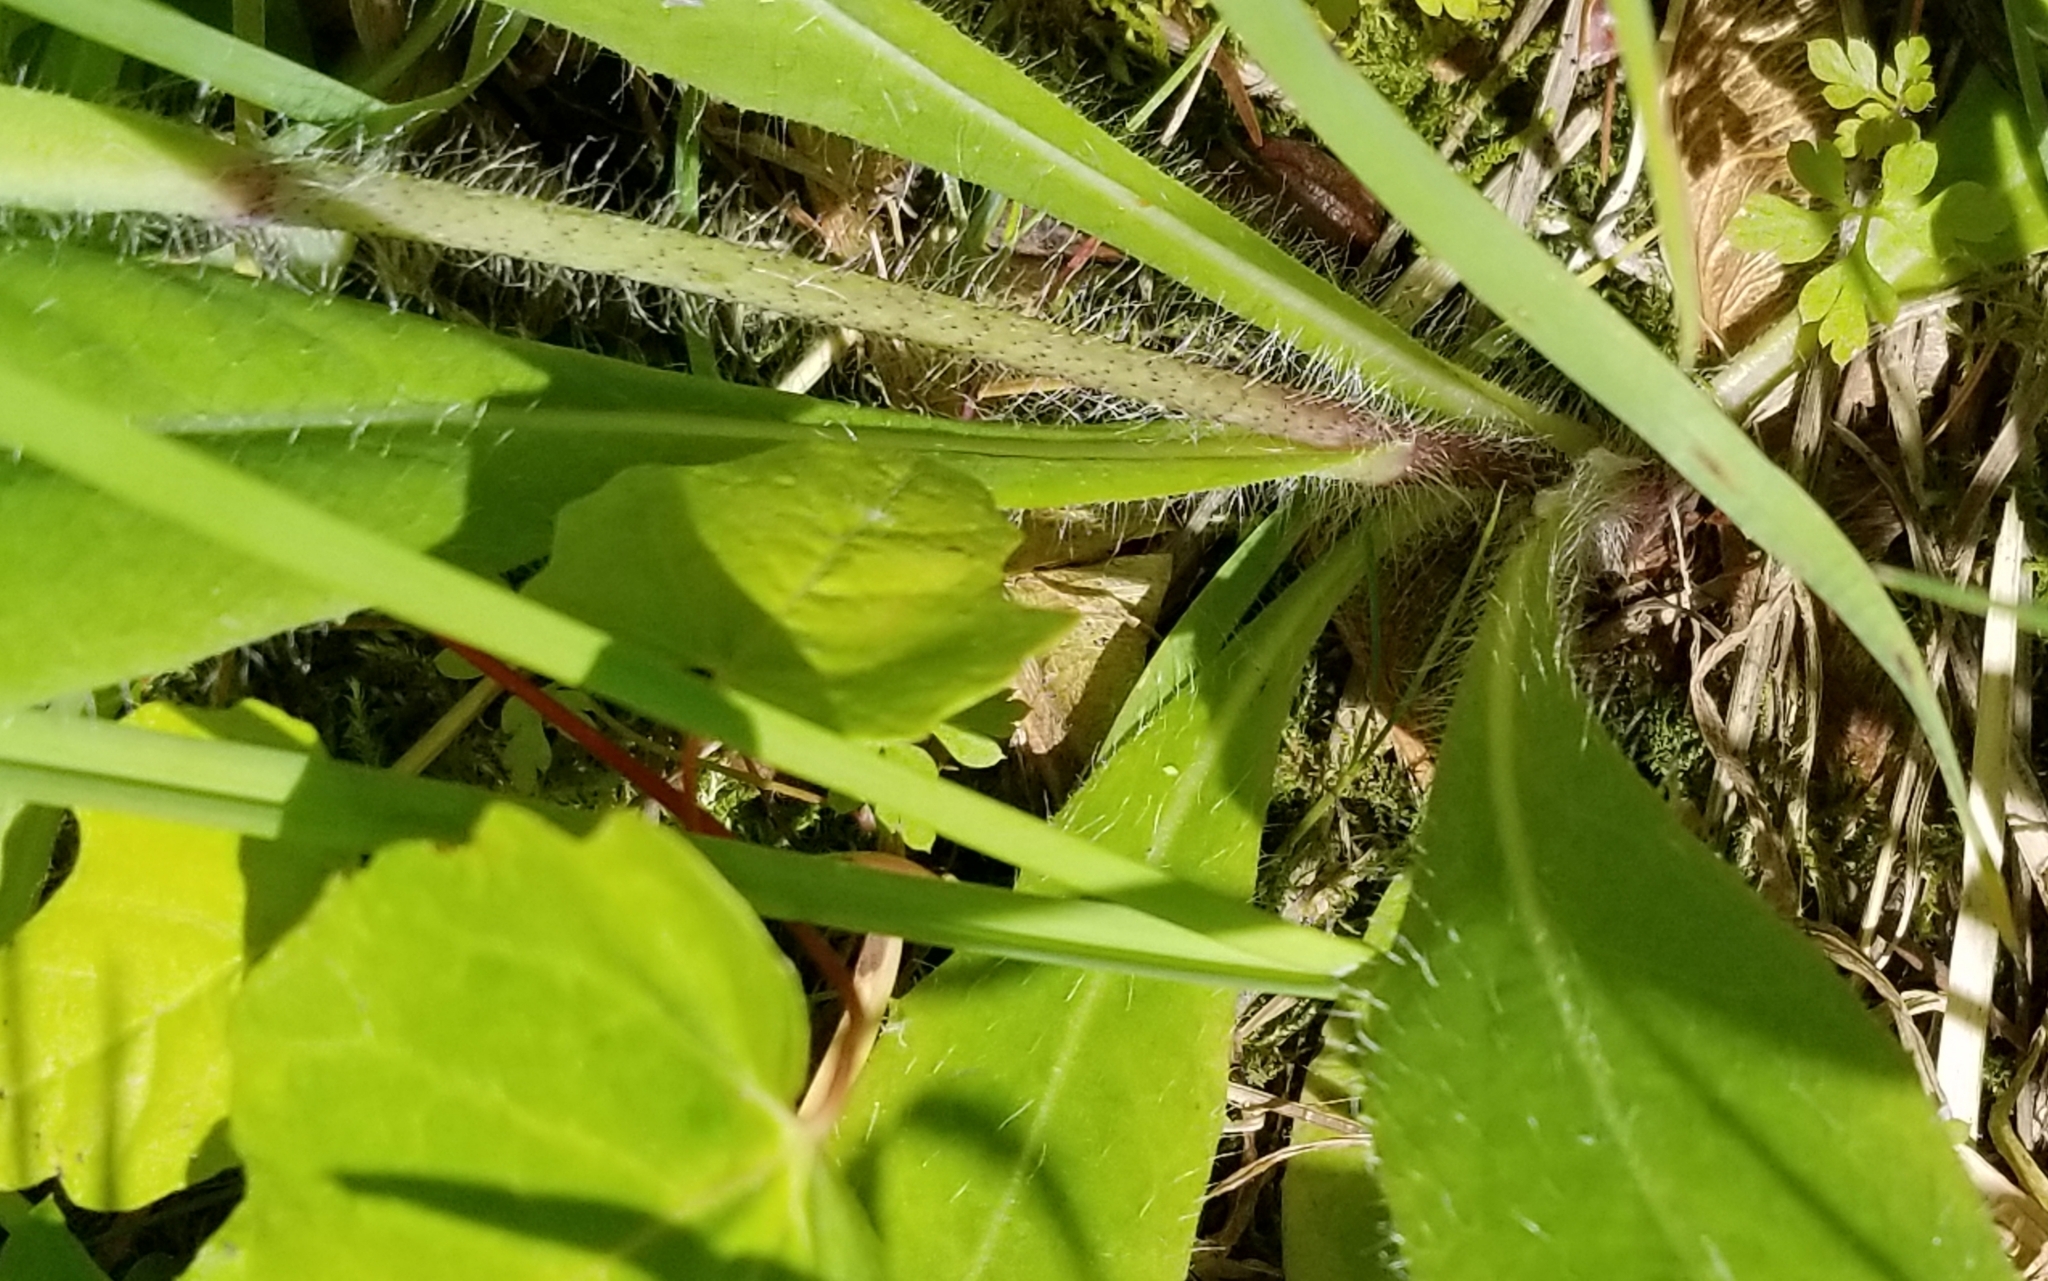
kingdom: Plantae
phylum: Tracheophyta
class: Magnoliopsida
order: Asterales
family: Asteraceae
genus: Pilosella
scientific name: Pilosella caespitosa
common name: Yellow fox-and-cubs
